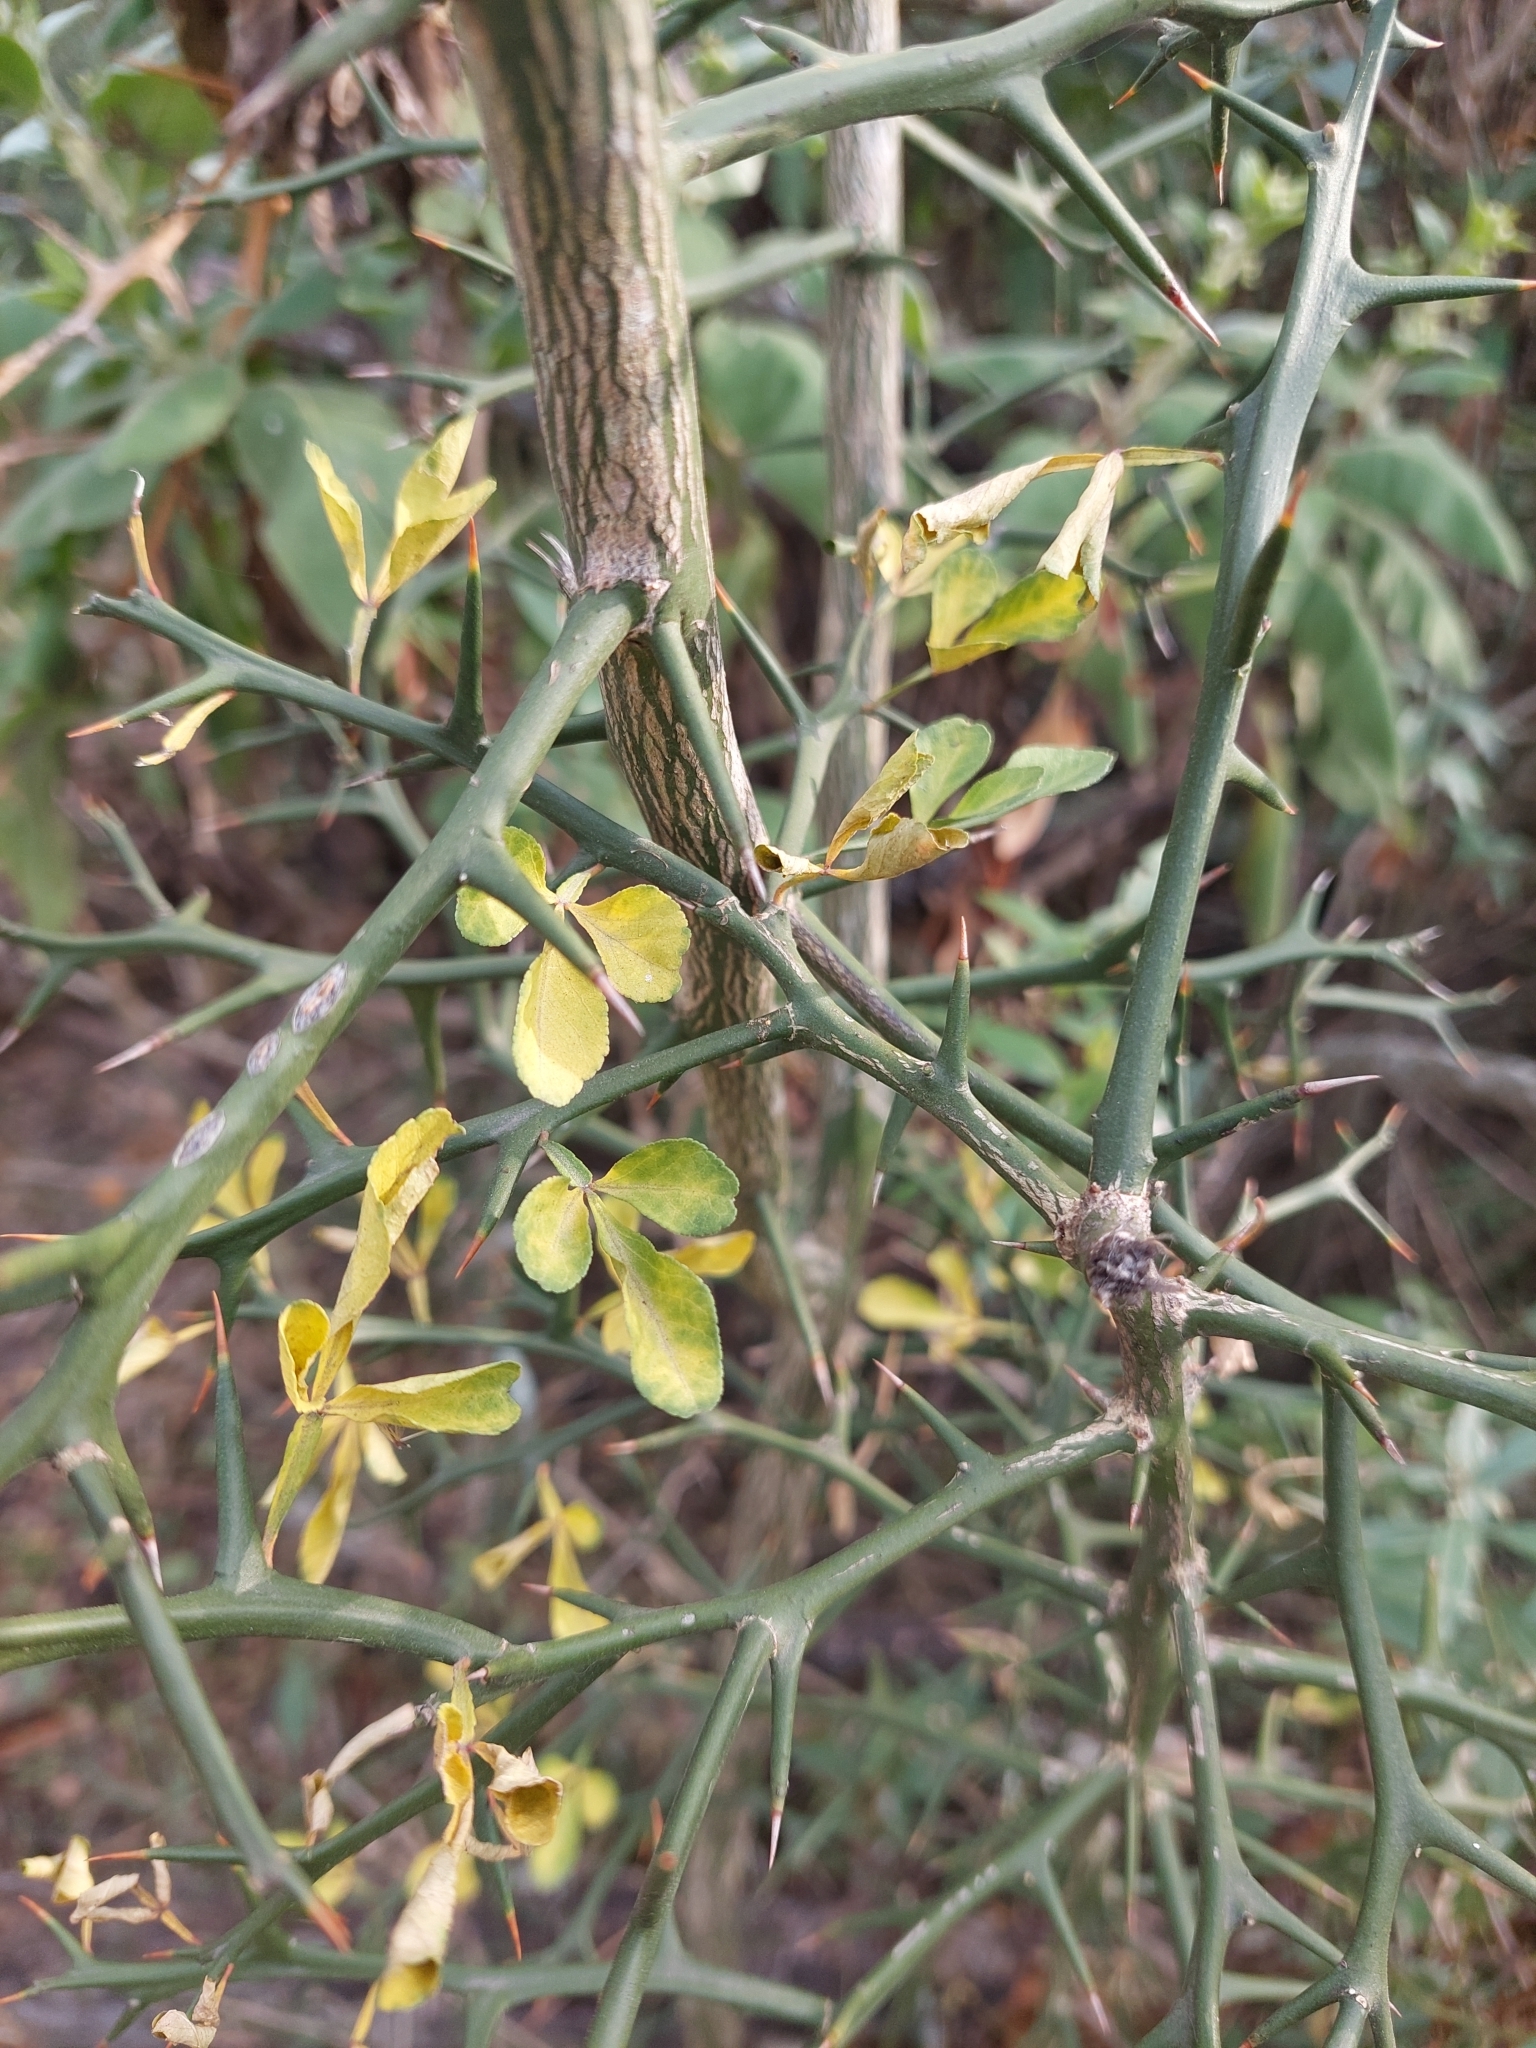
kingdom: Plantae
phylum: Tracheophyta
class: Magnoliopsida
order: Sapindales
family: Rutaceae
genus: Citrus
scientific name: Citrus trifoliata
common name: Japanese bitter-orange
